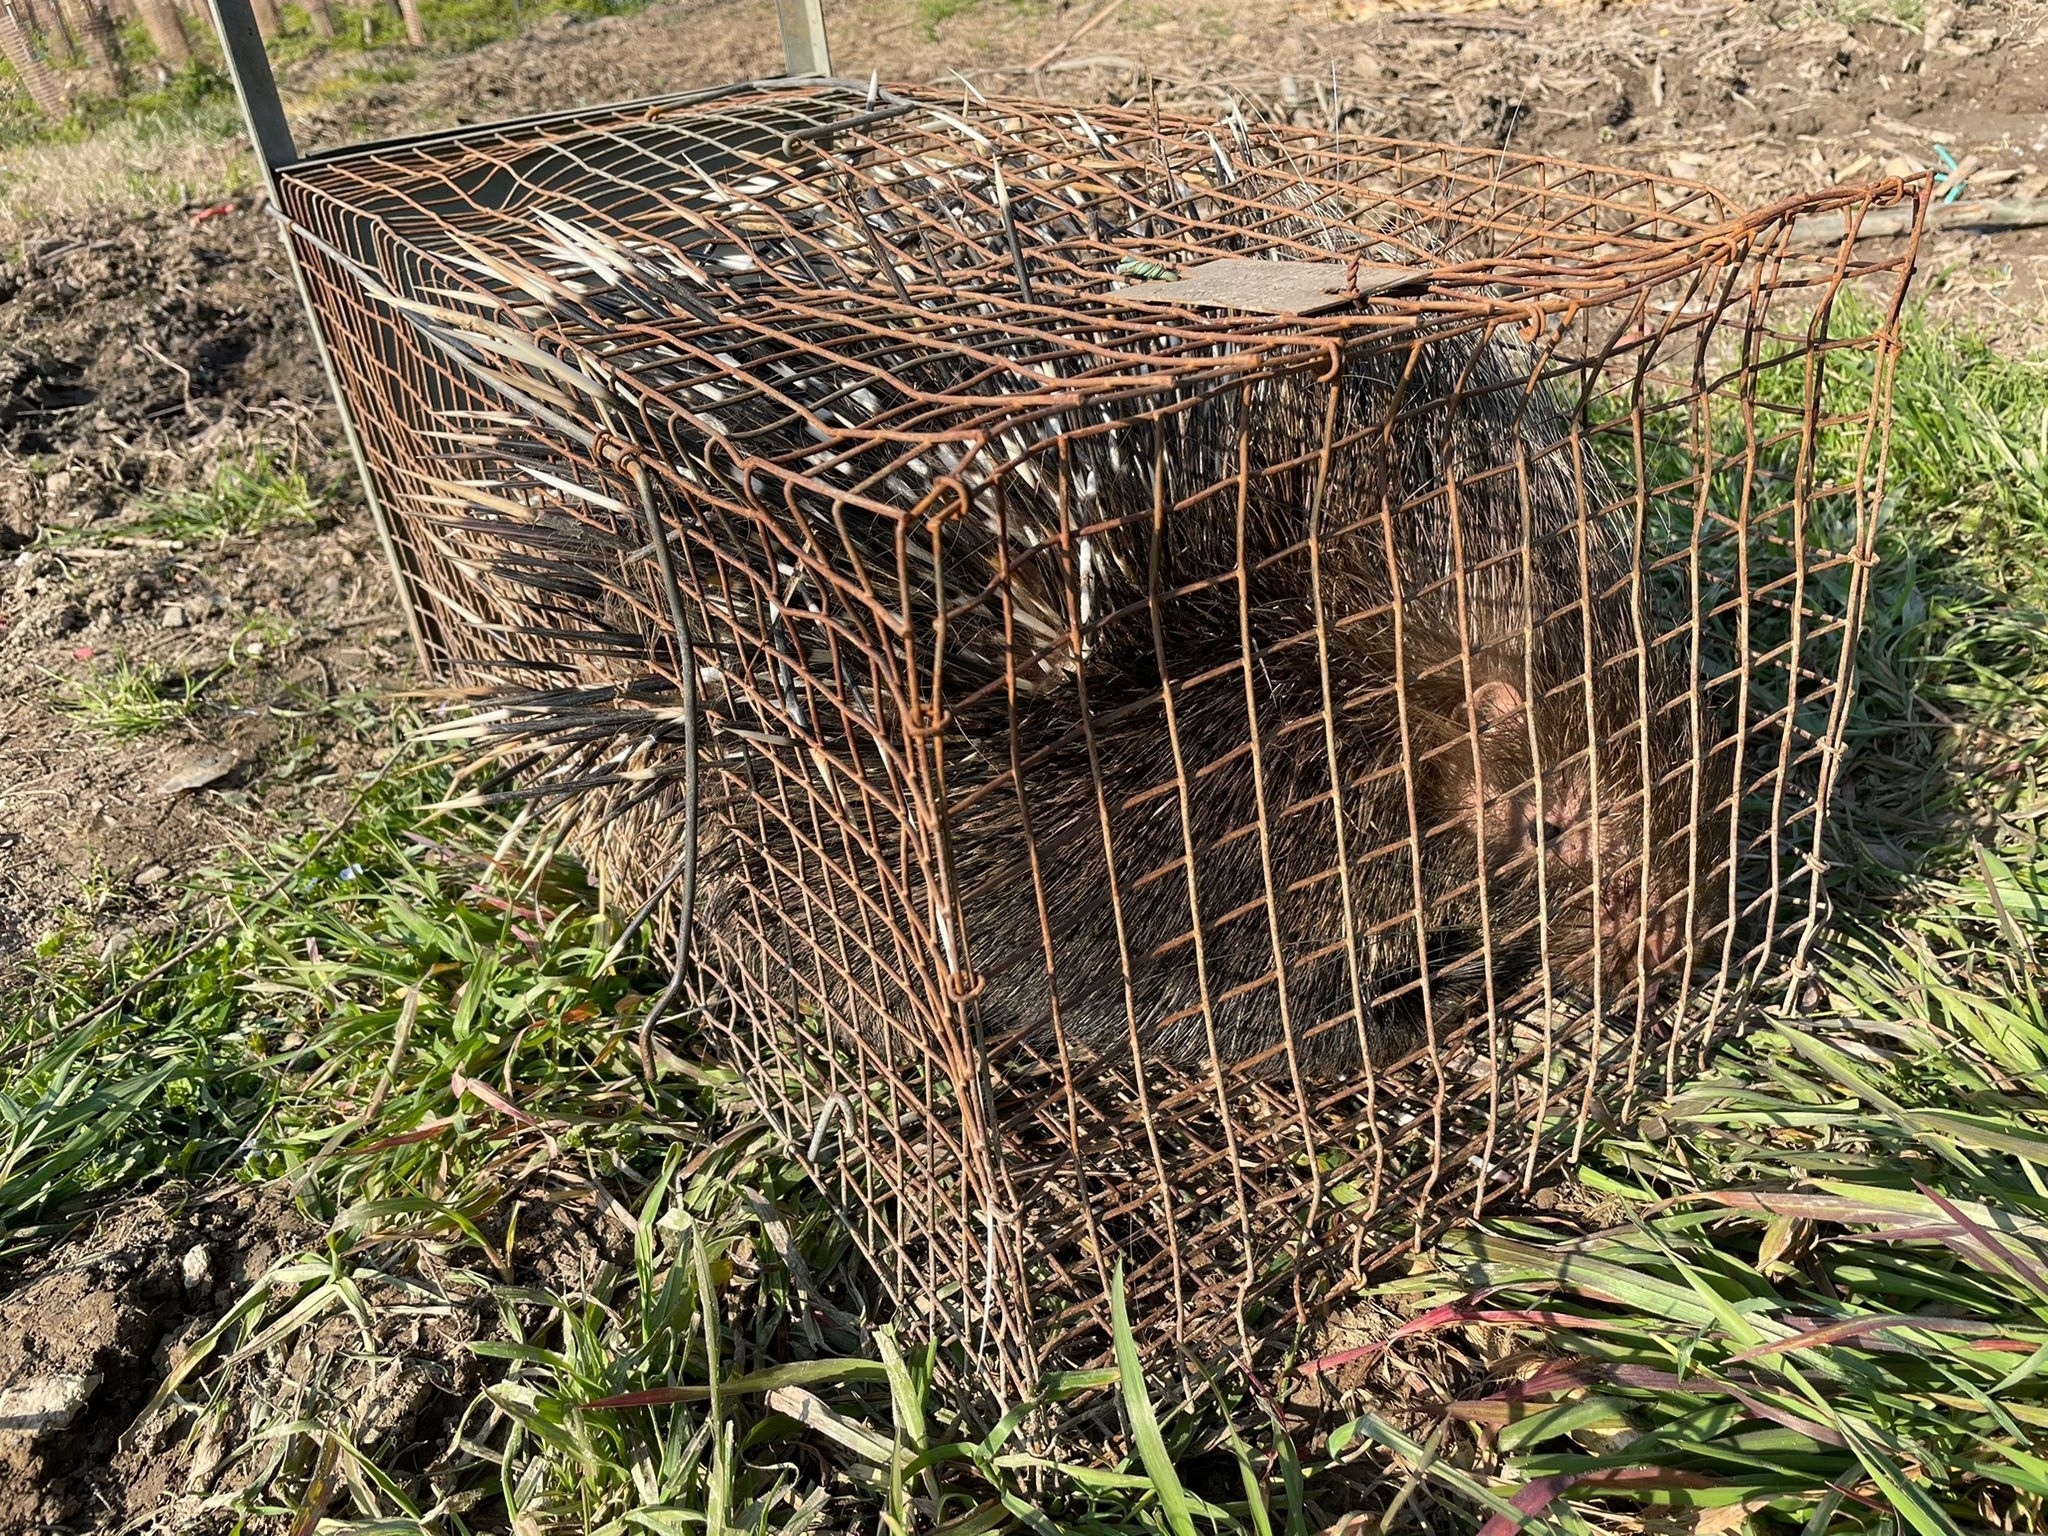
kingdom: Animalia
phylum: Chordata
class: Mammalia
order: Rodentia
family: Hystricidae
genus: Hystrix
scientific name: Hystrix cristata
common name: Crested porcupine
